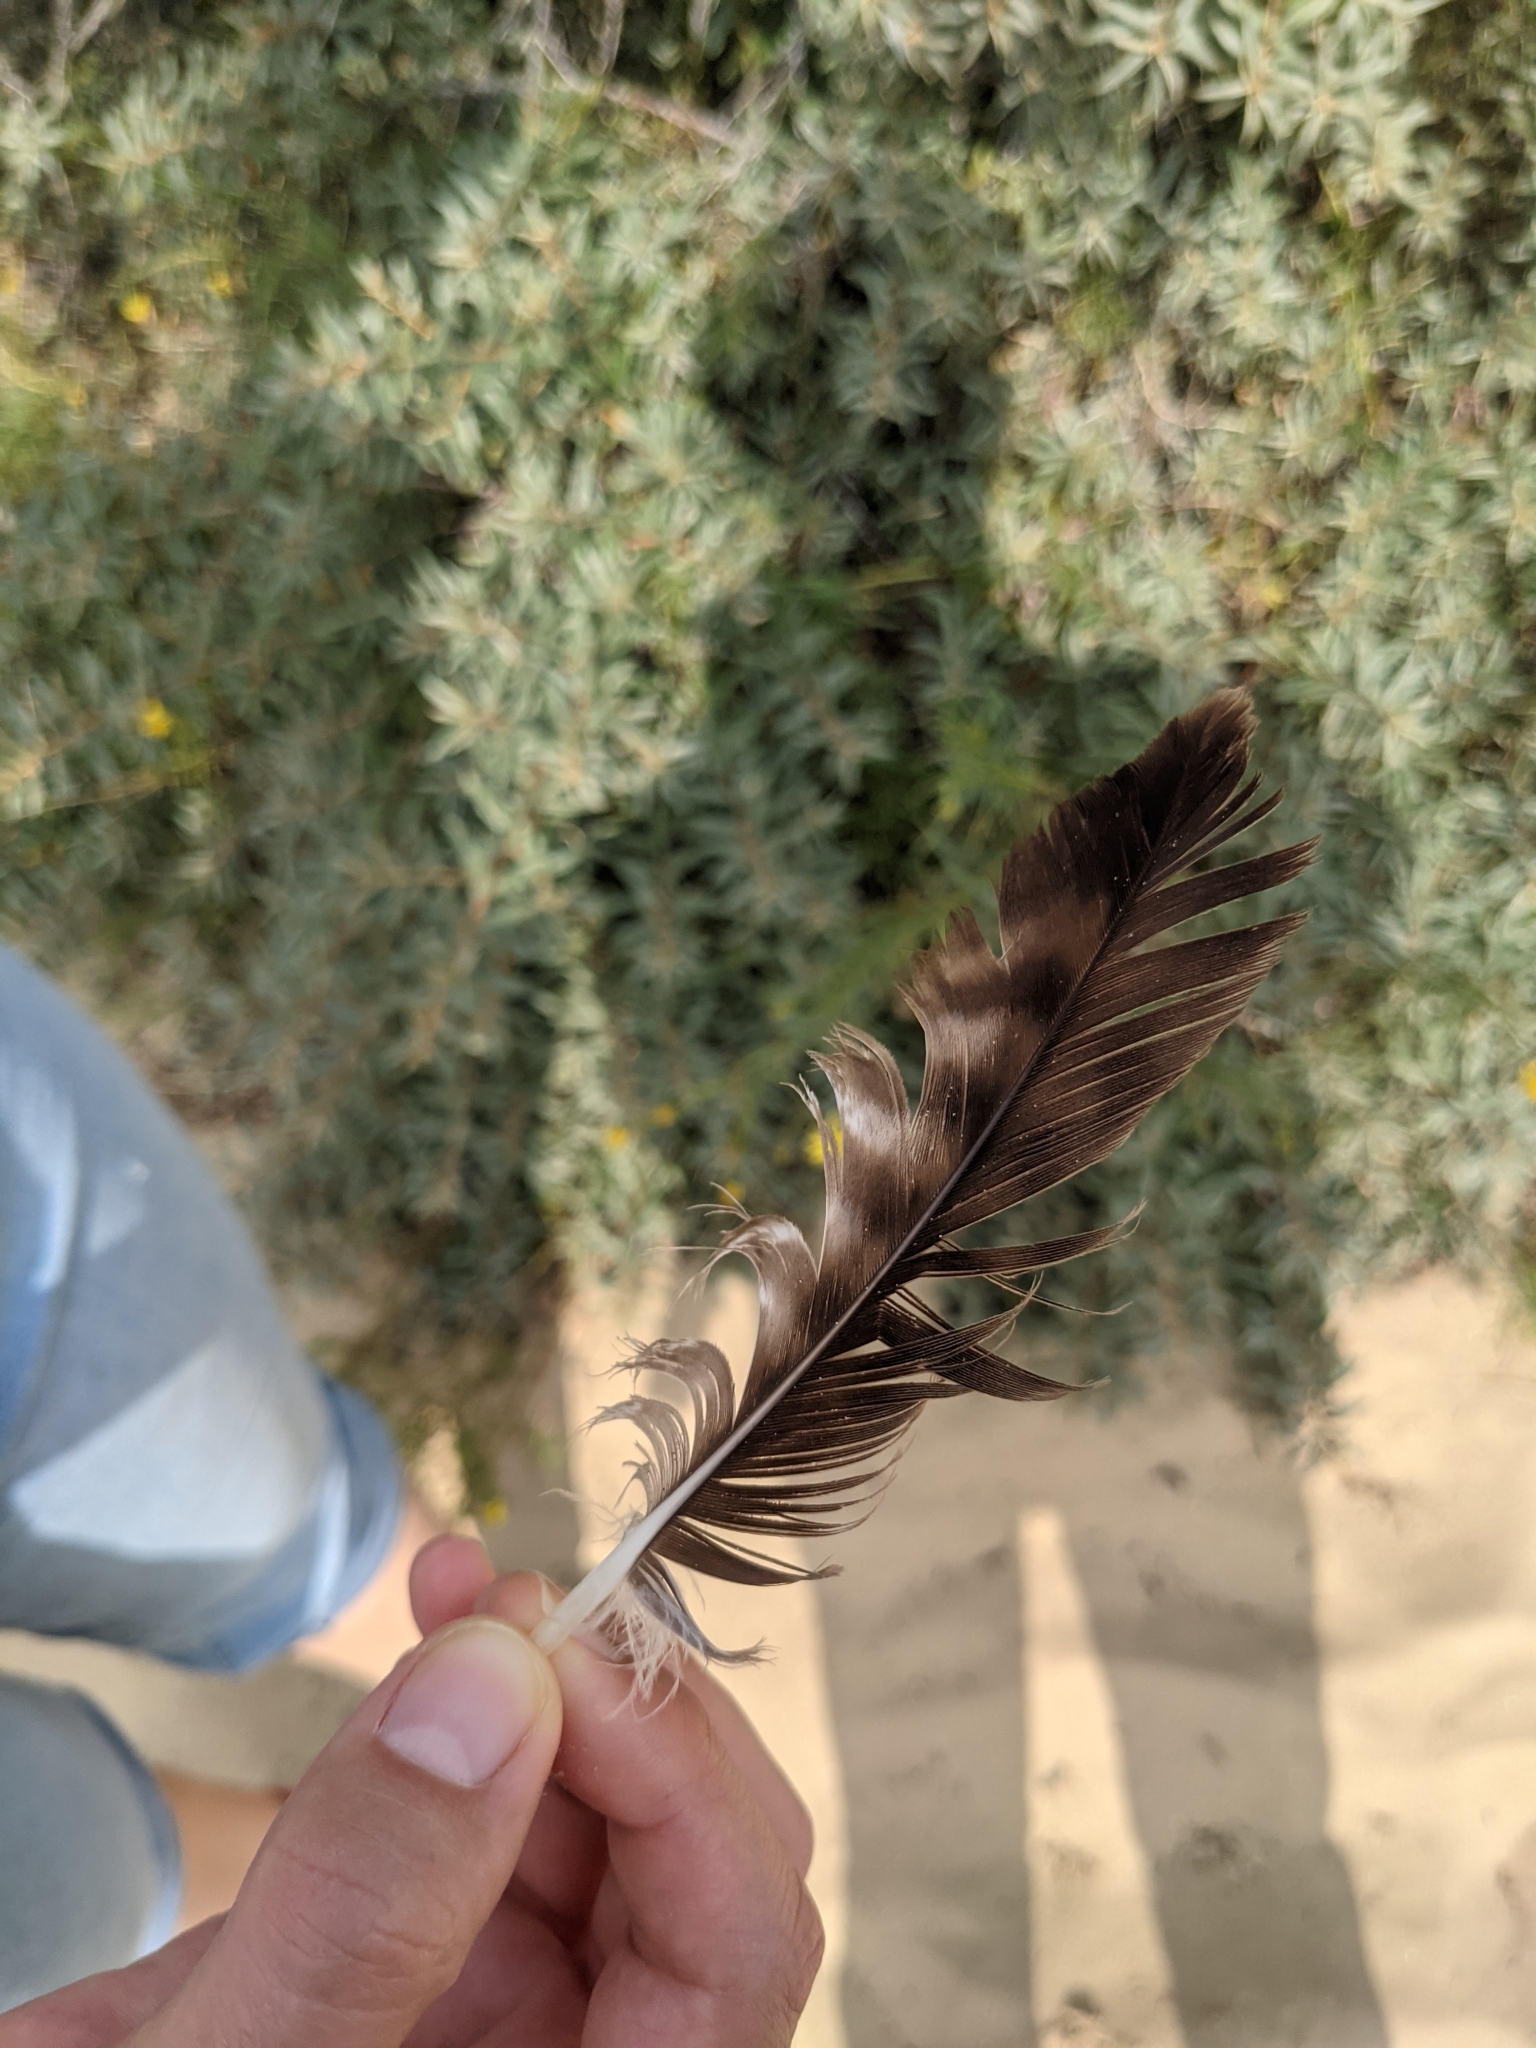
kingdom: Animalia
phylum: Chordata
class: Aves
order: Accipitriformes
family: Accipitridae
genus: Buteo
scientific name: Buteo buteo
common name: Common buzzard
